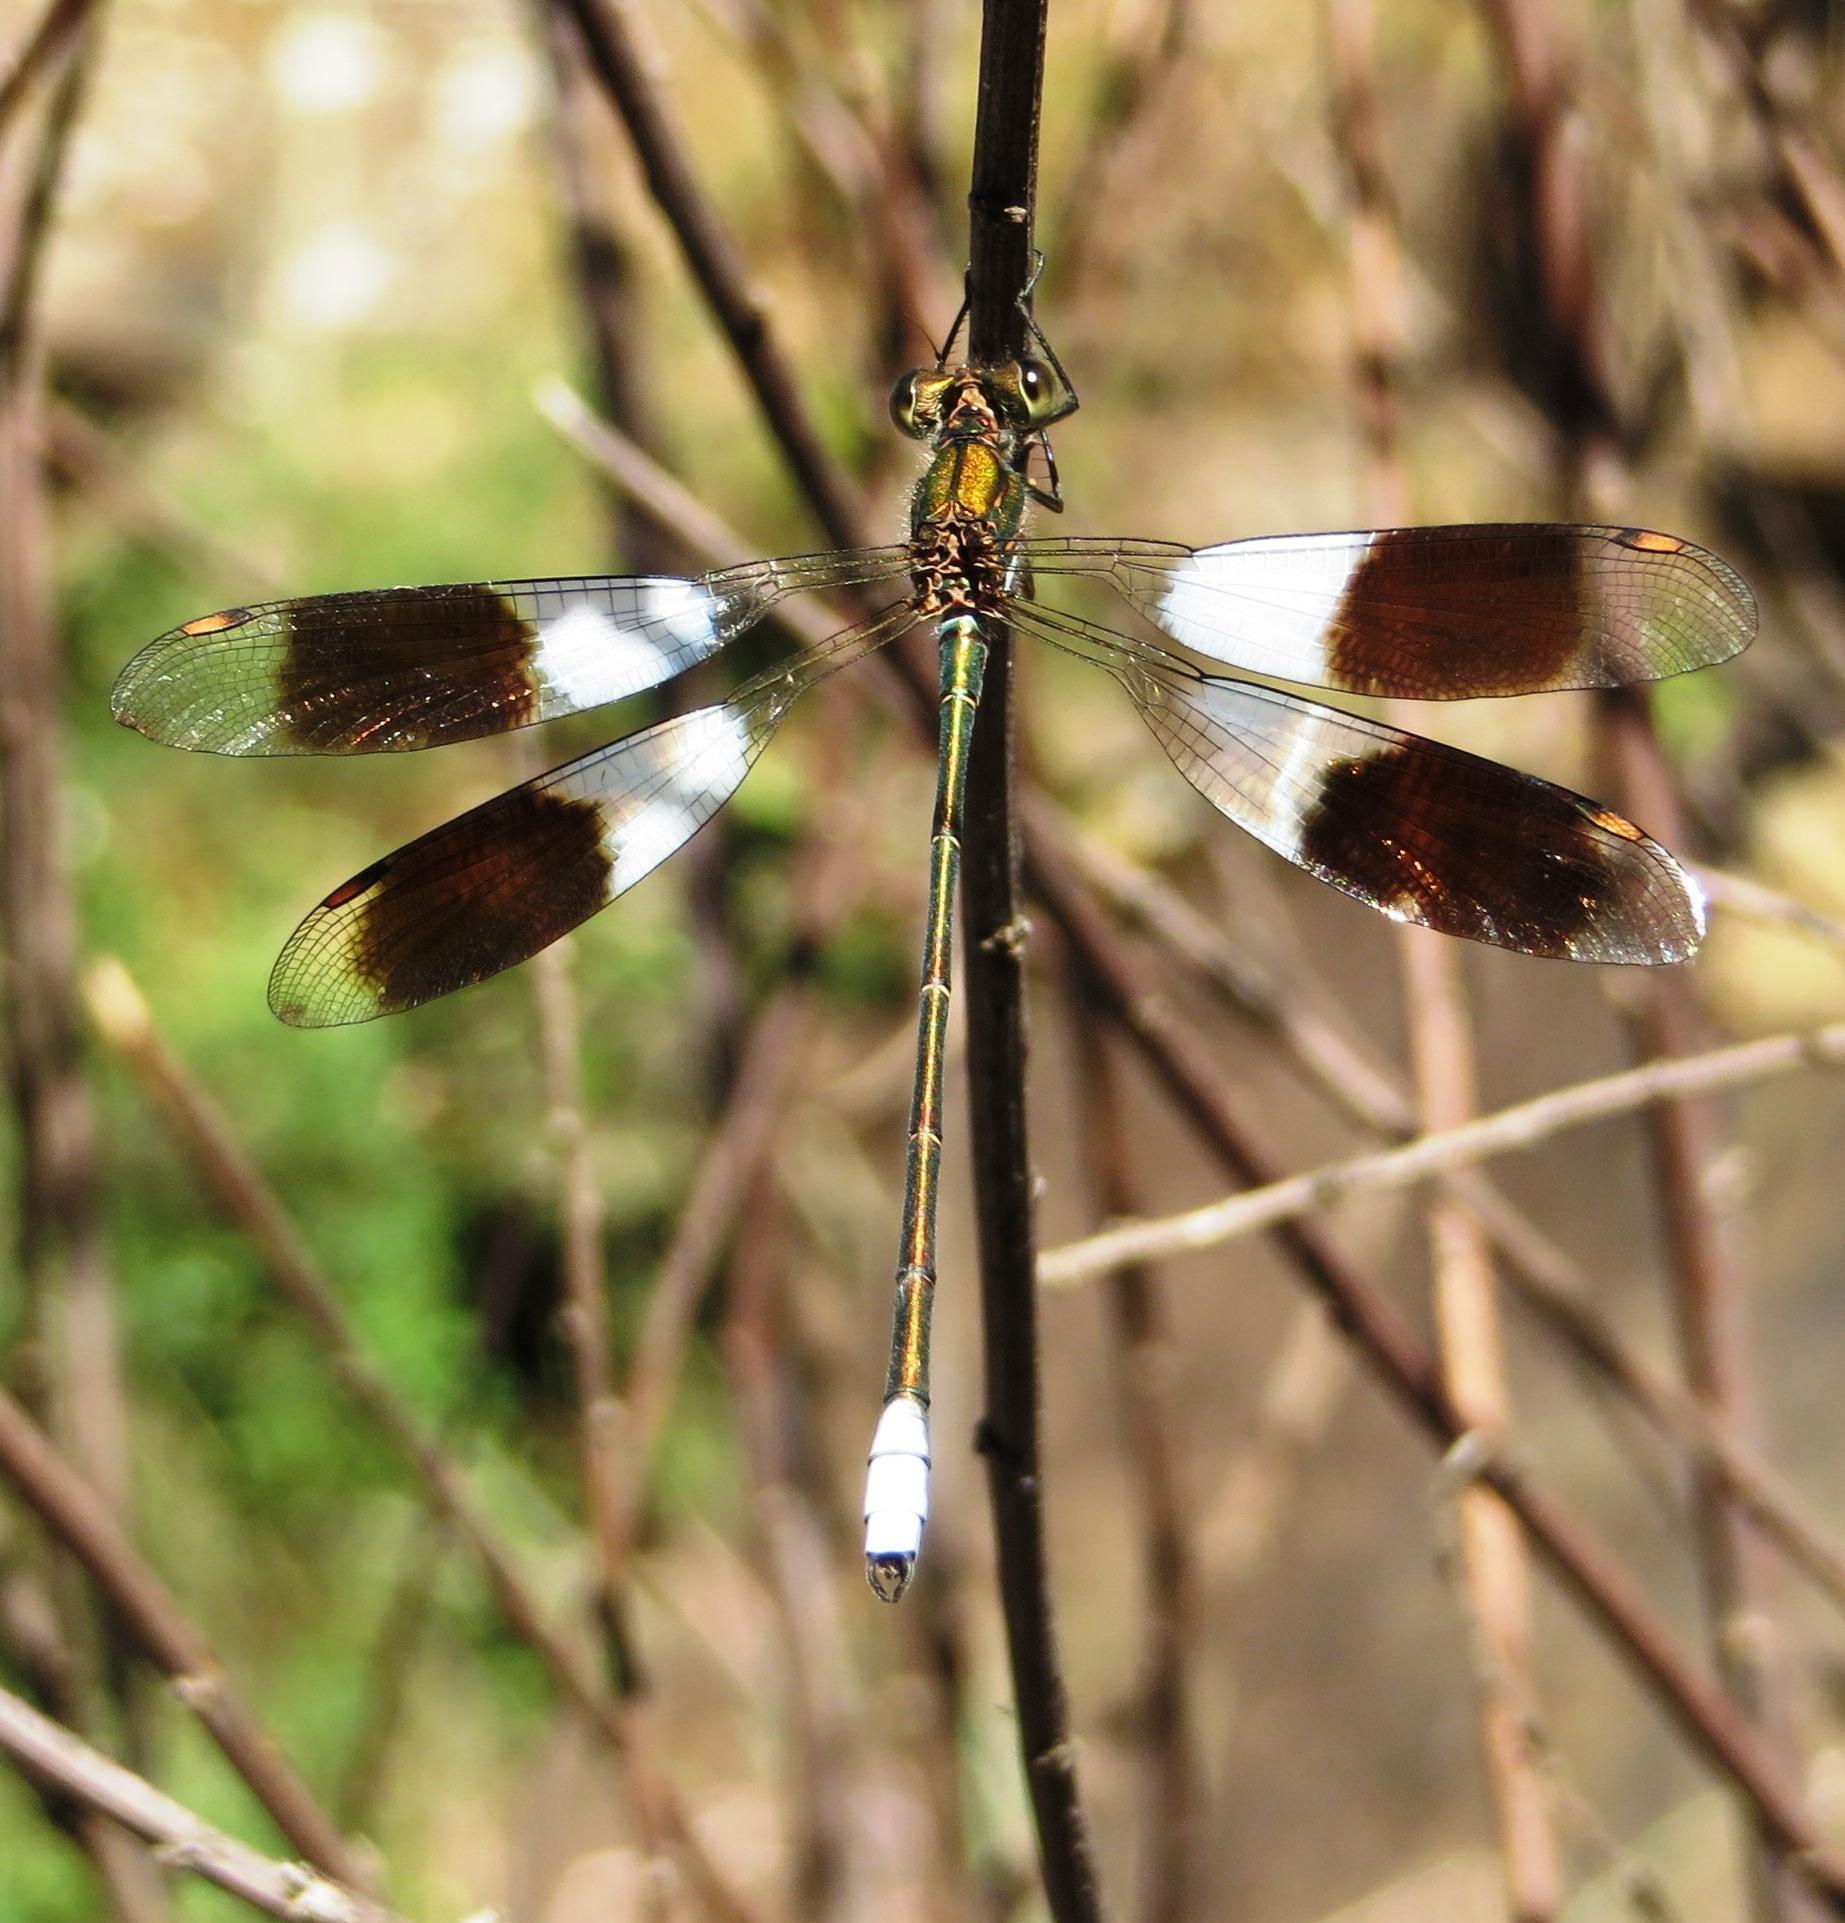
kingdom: Animalia
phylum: Arthropoda
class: Insecta
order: Odonata
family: Synlestidae
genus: Chlorolestes
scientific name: Chlorolestes fasciatus
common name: Mountain malachite
